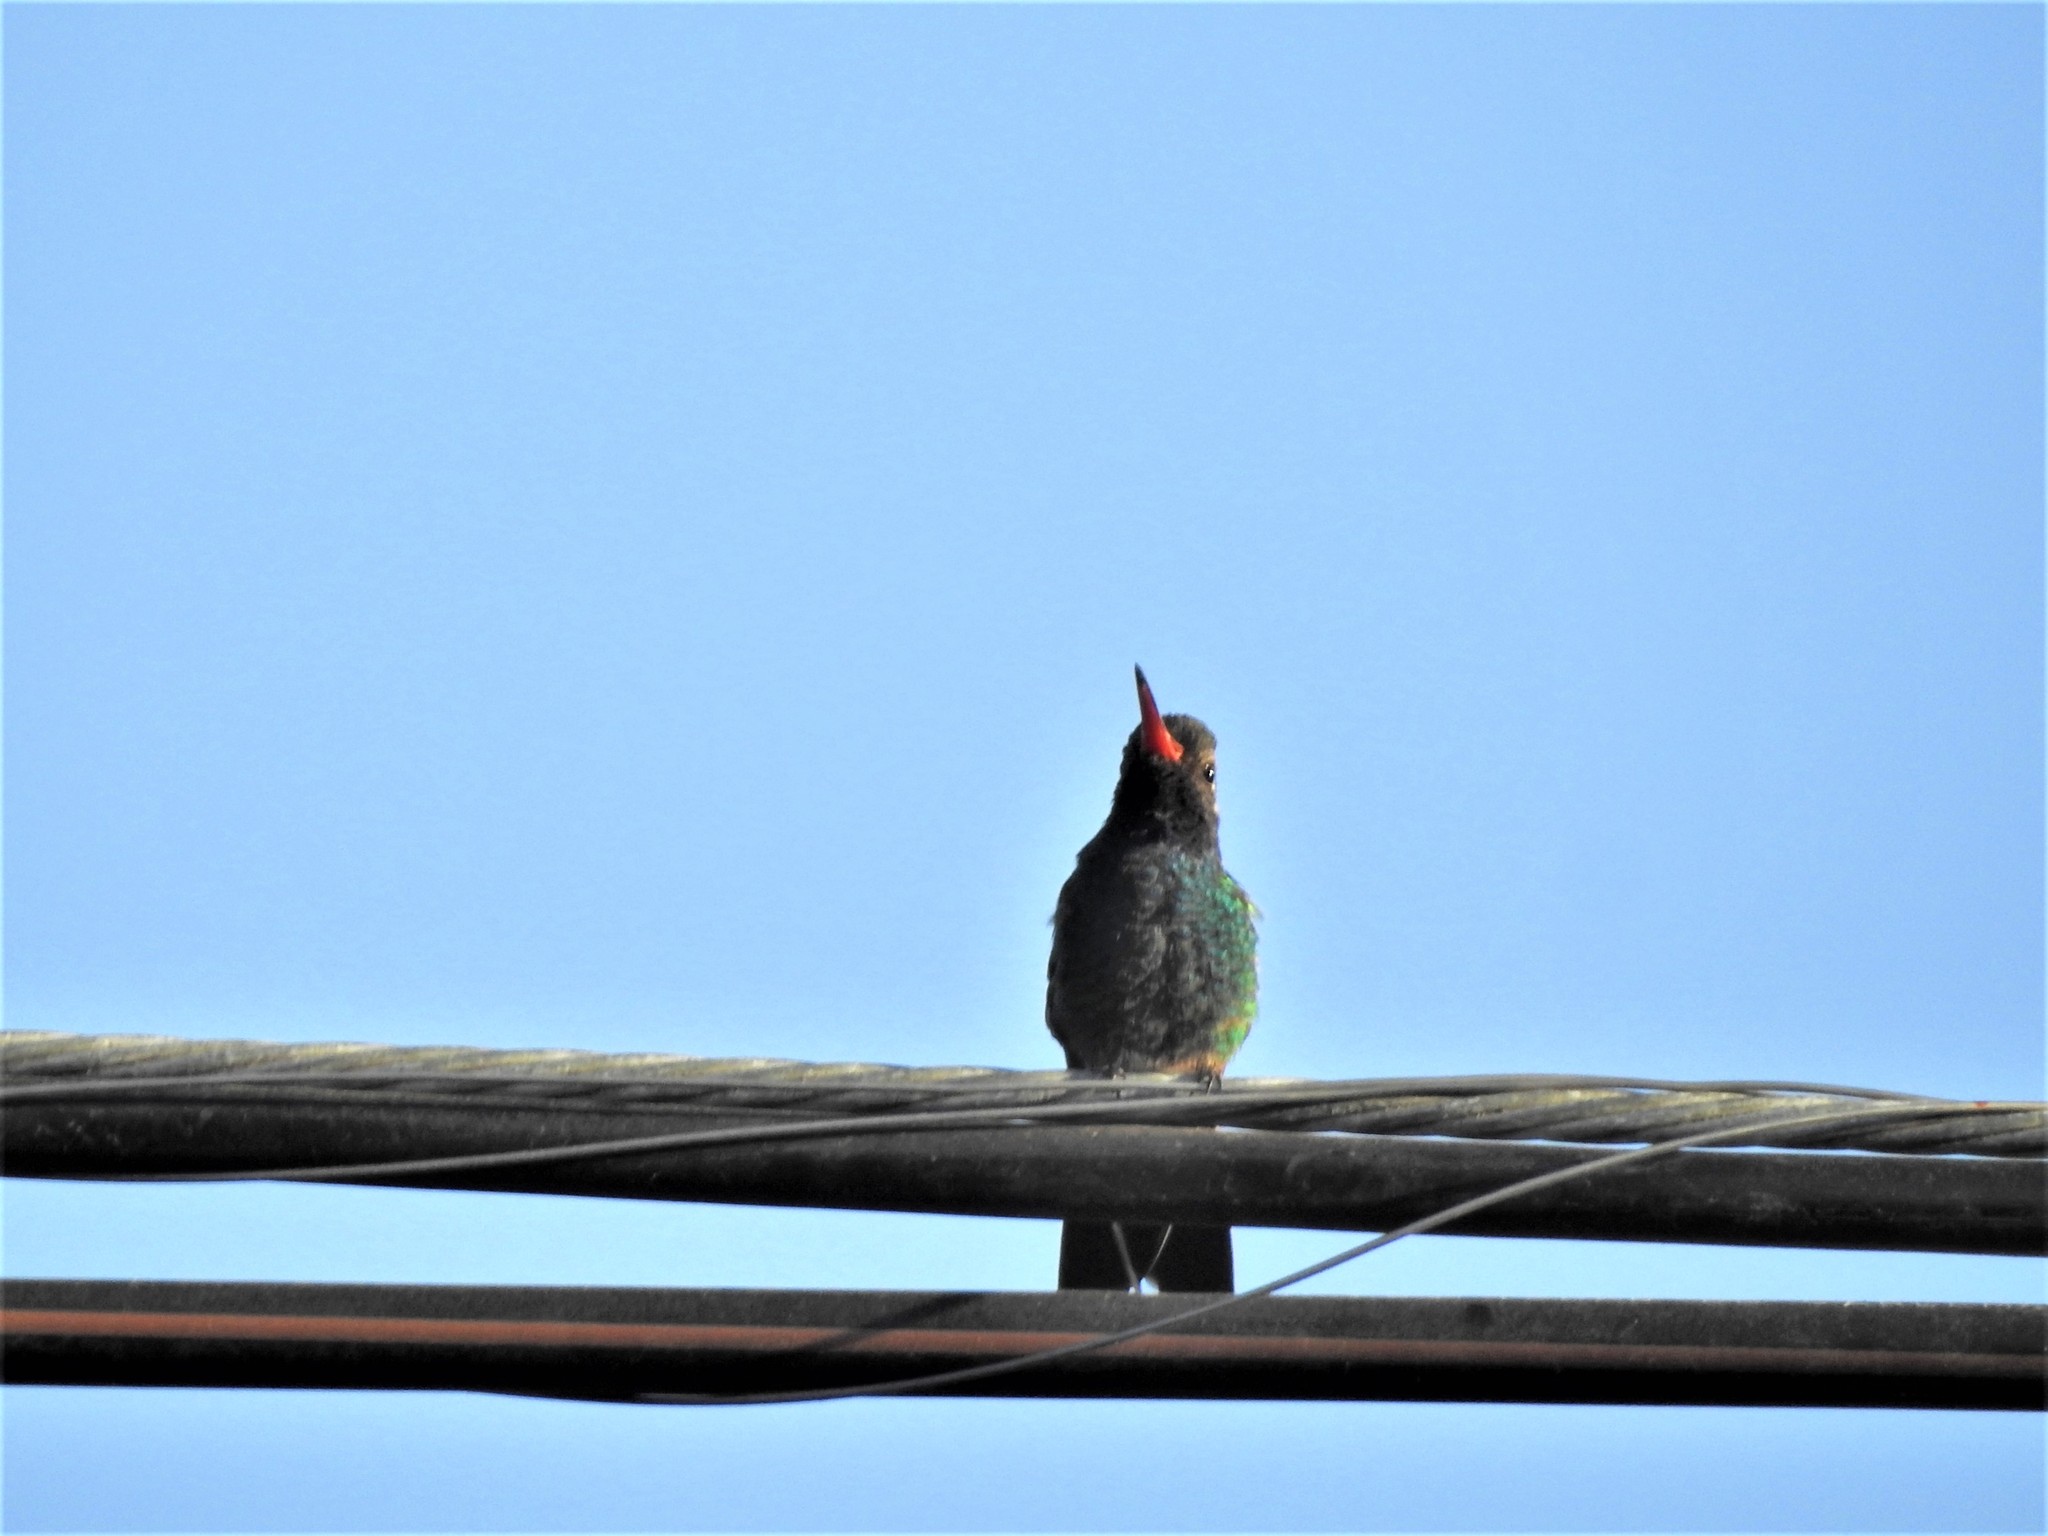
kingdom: Animalia
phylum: Chordata
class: Aves
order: Apodiformes
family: Trochilidae
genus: Cynanthus
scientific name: Cynanthus latirostris
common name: Broad-billed hummingbird
